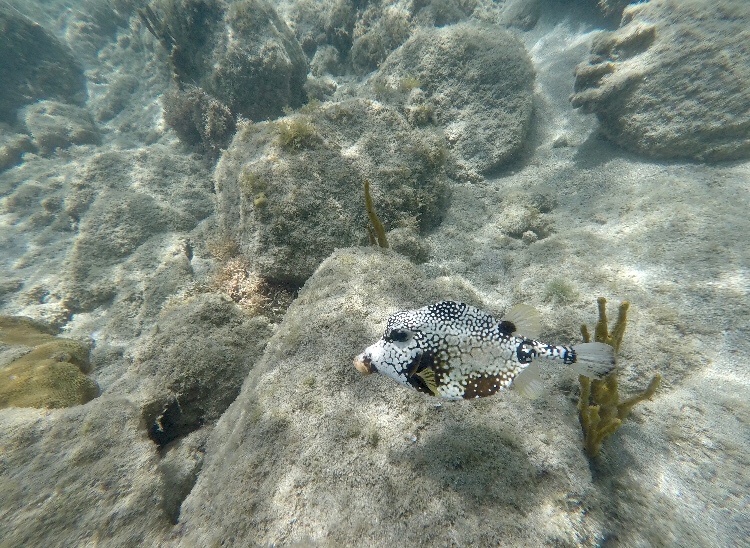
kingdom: Animalia
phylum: Chordata
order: Tetraodontiformes
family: Ostraciidae
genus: Lactophrys
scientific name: Lactophrys triqueter
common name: Smooth trunkfish
